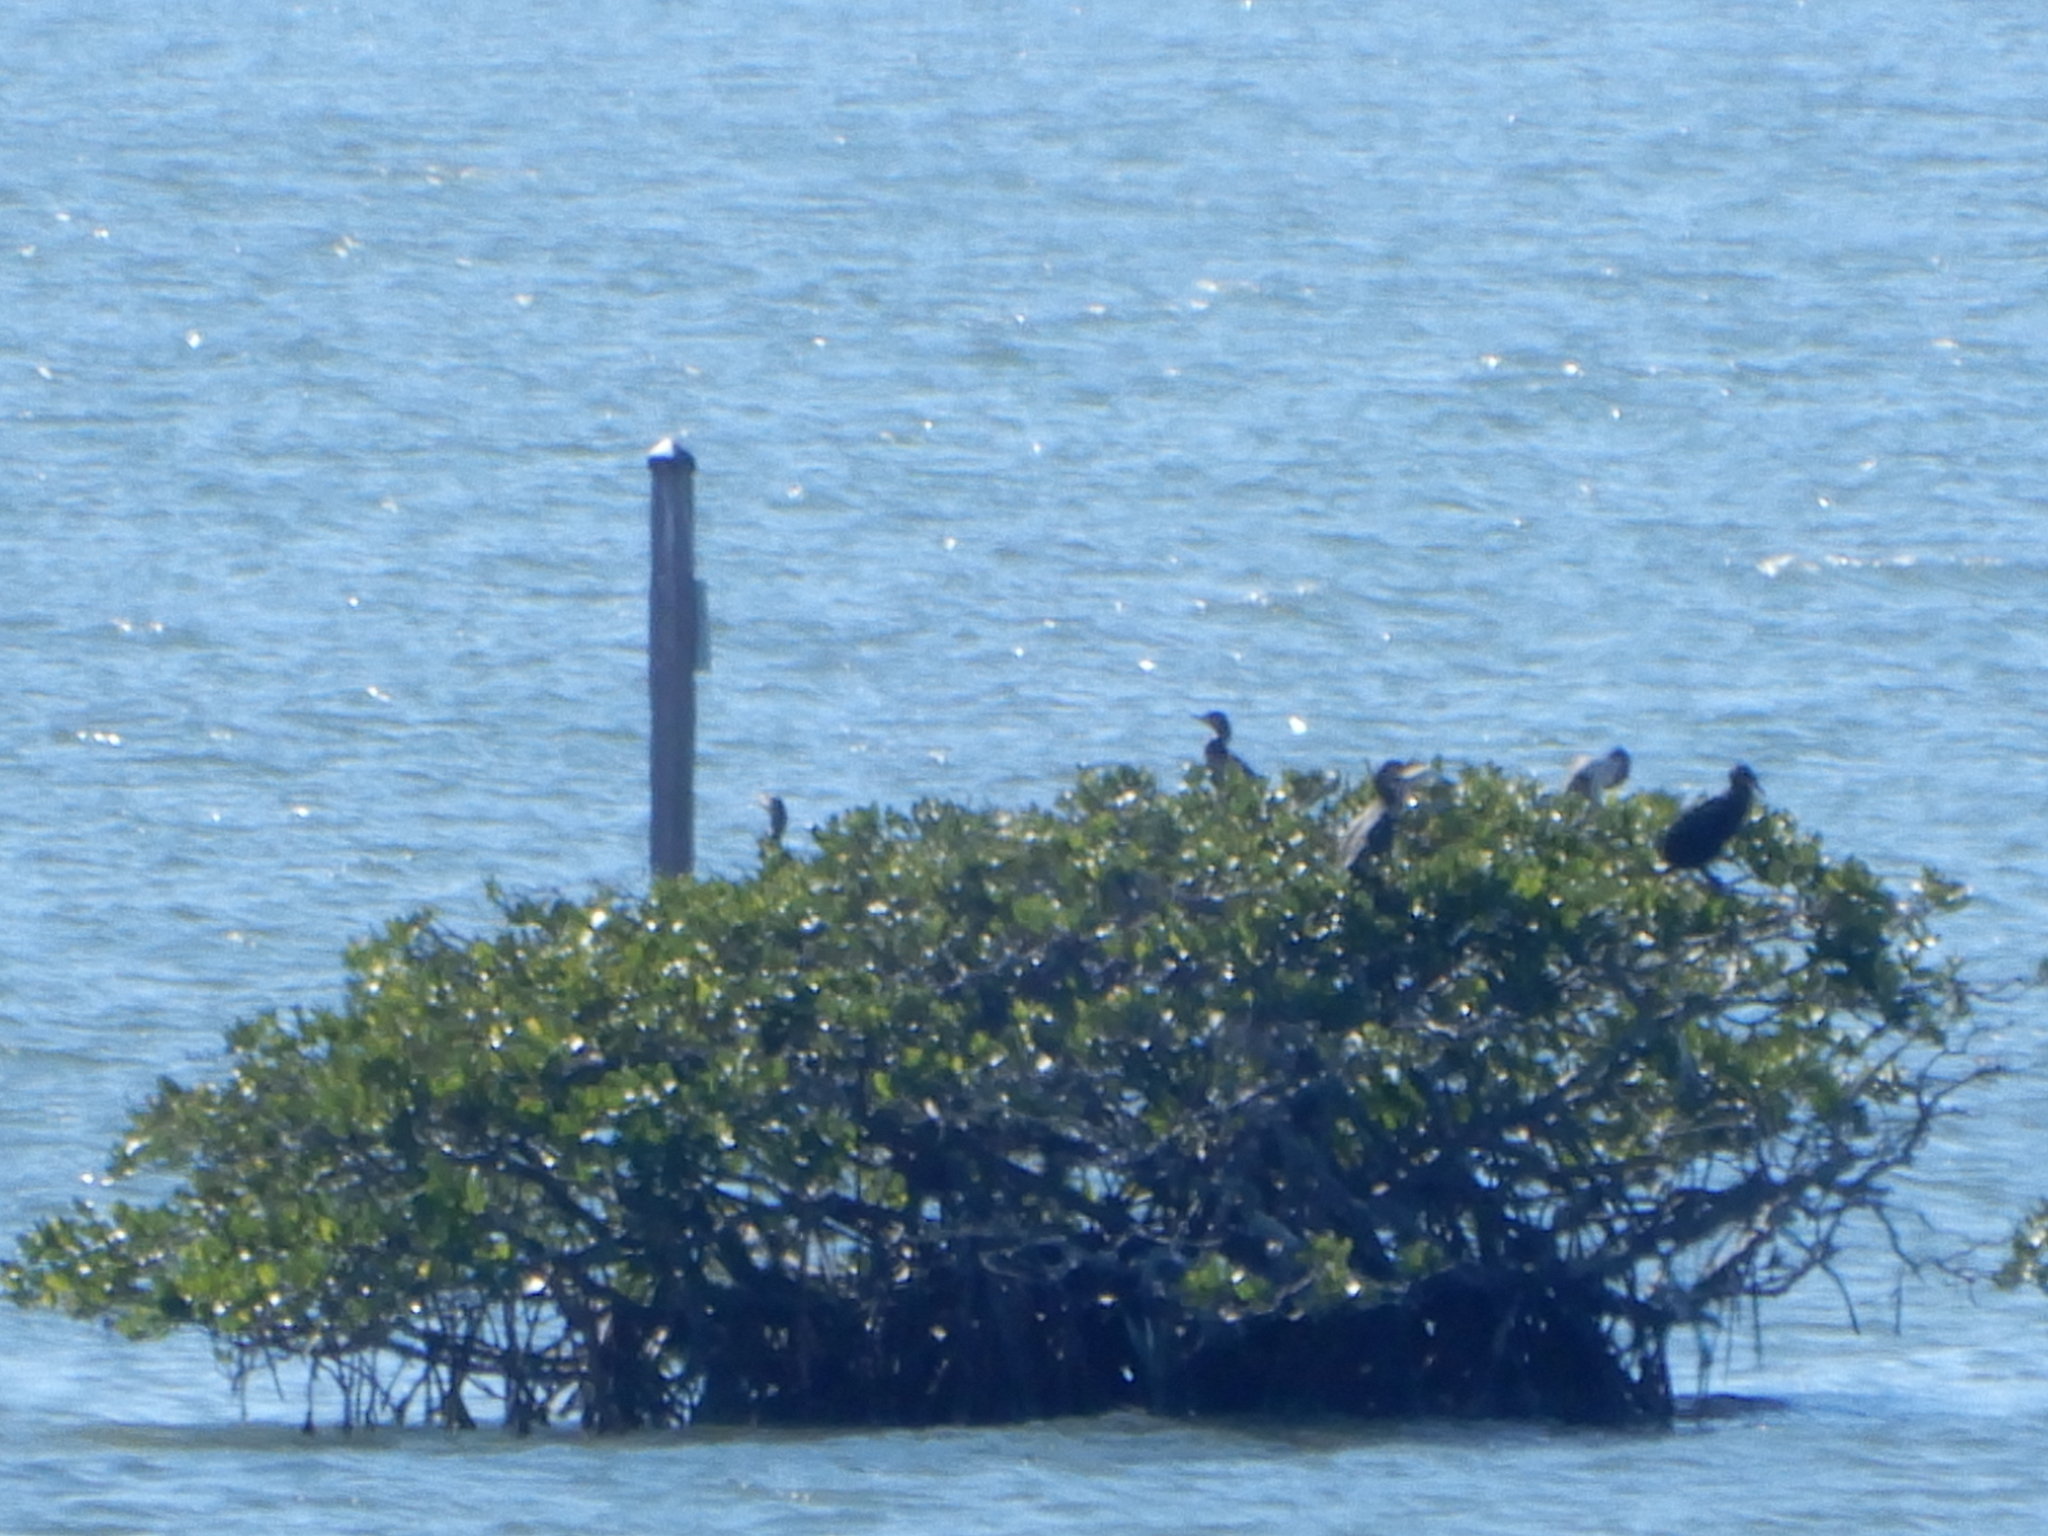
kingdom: Animalia
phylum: Chordata
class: Aves
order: Suliformes
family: Phalacrocoracidae
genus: Phalacrocorax
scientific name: Phalacrocorax auritus
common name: Double-crested cormorant
